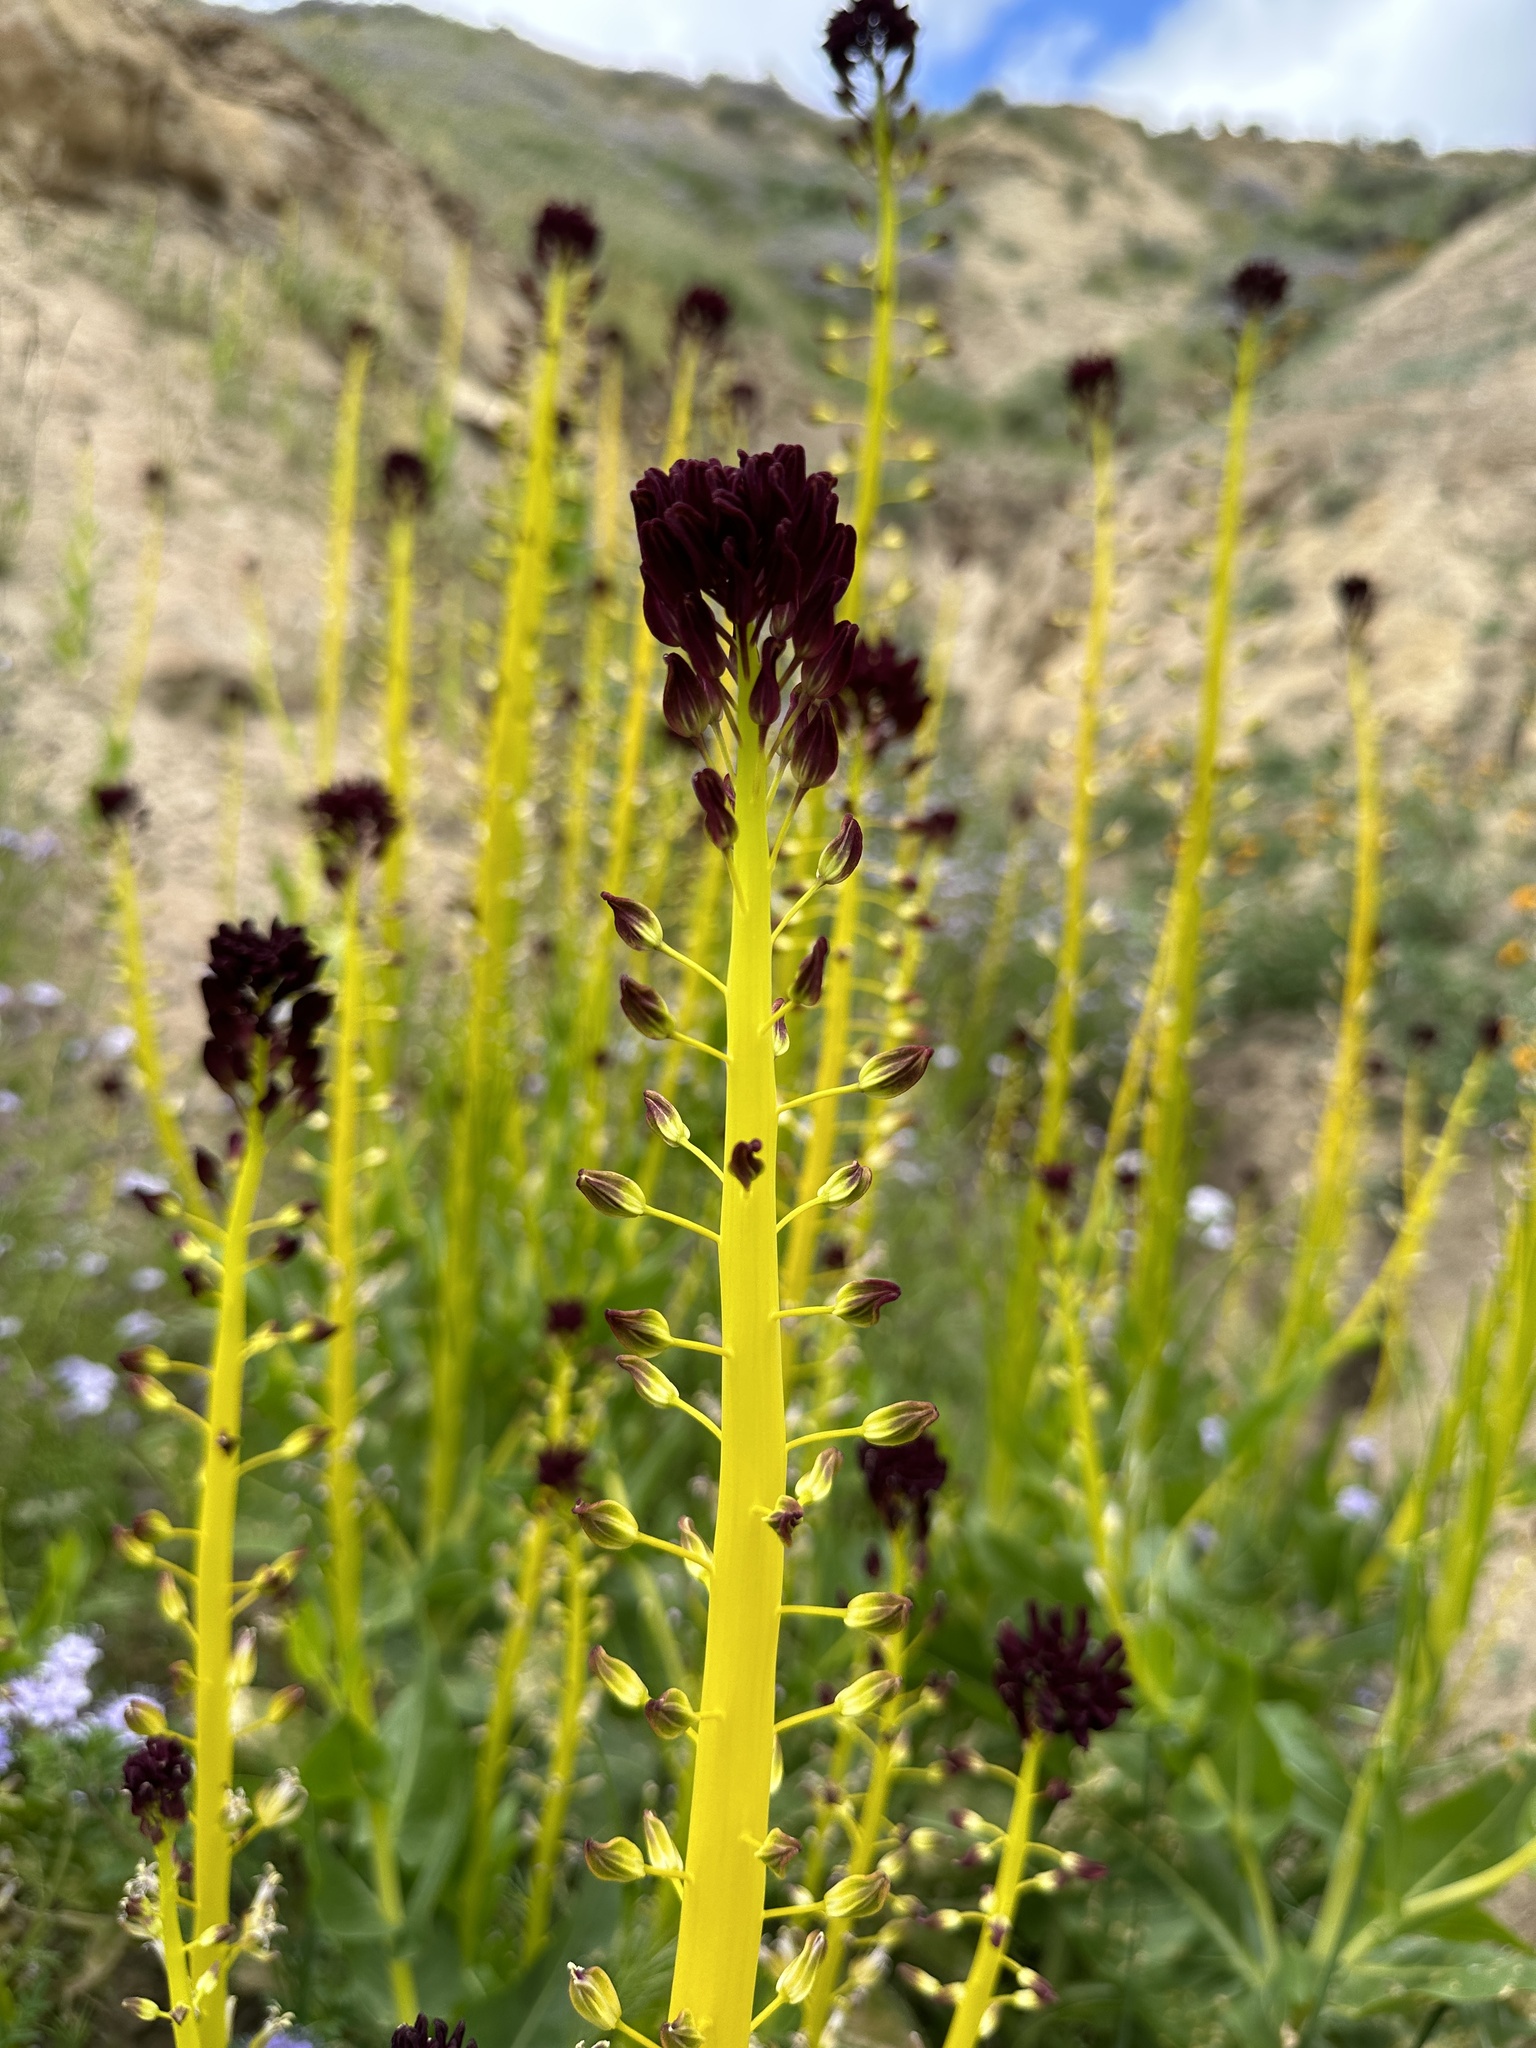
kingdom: Plantae
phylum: Tracheophyta
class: Magnoliopsida
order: Brassicales
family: Brassicaceae
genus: Streptanthus
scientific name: Streptanthus inflatus
